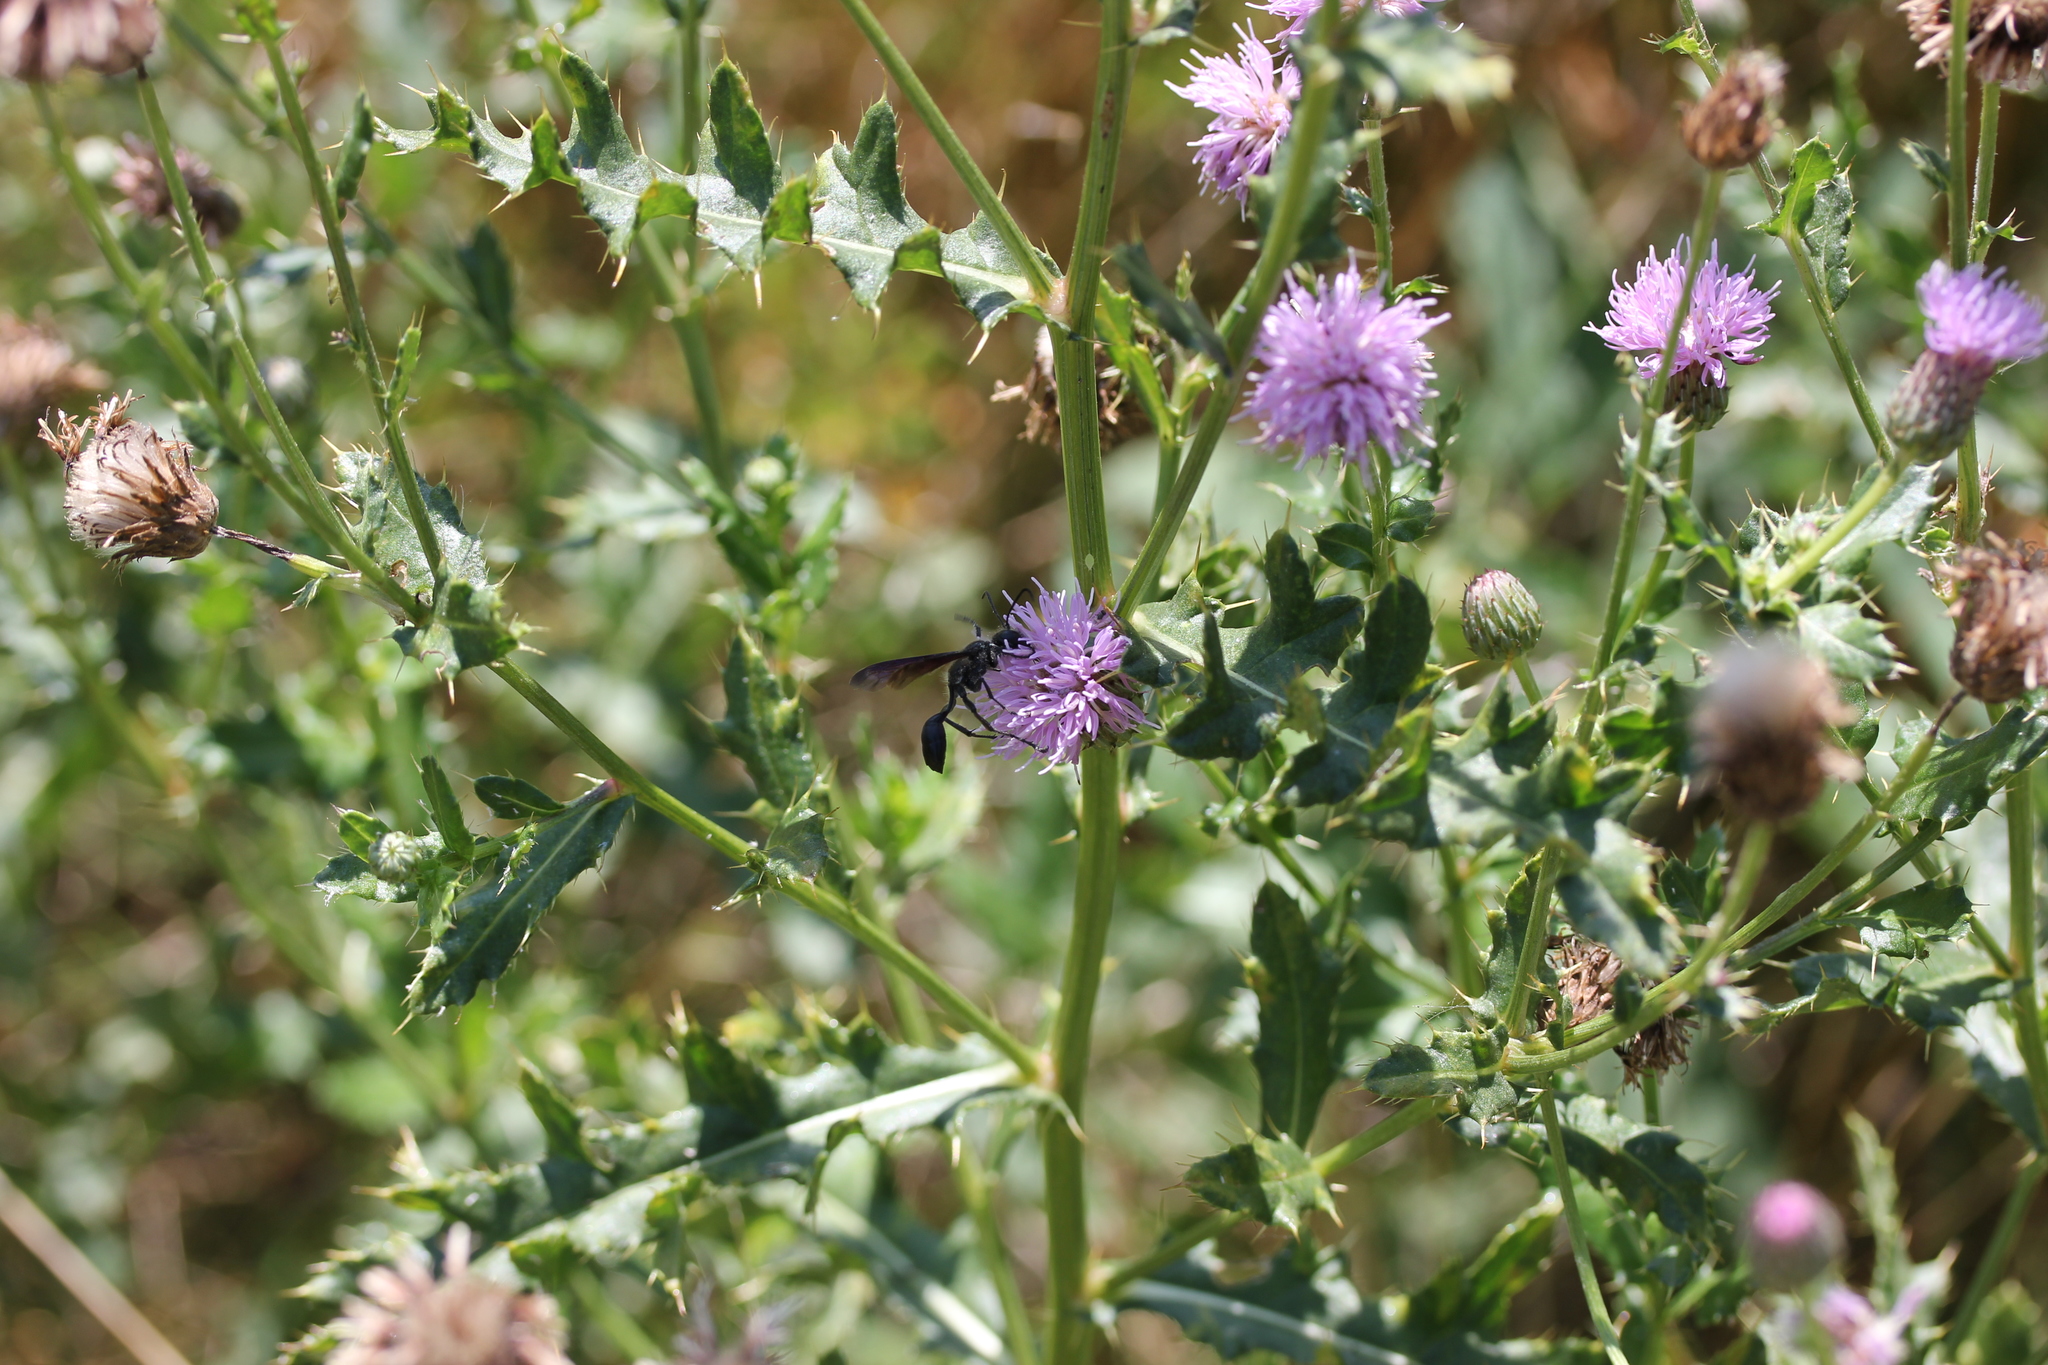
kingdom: Plantae
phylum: Tracheophyta
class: Magnoliopsida
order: Asterales
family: Asteraceae
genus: Cirsium
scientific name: Cirsium arvense
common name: Creeping thistle
